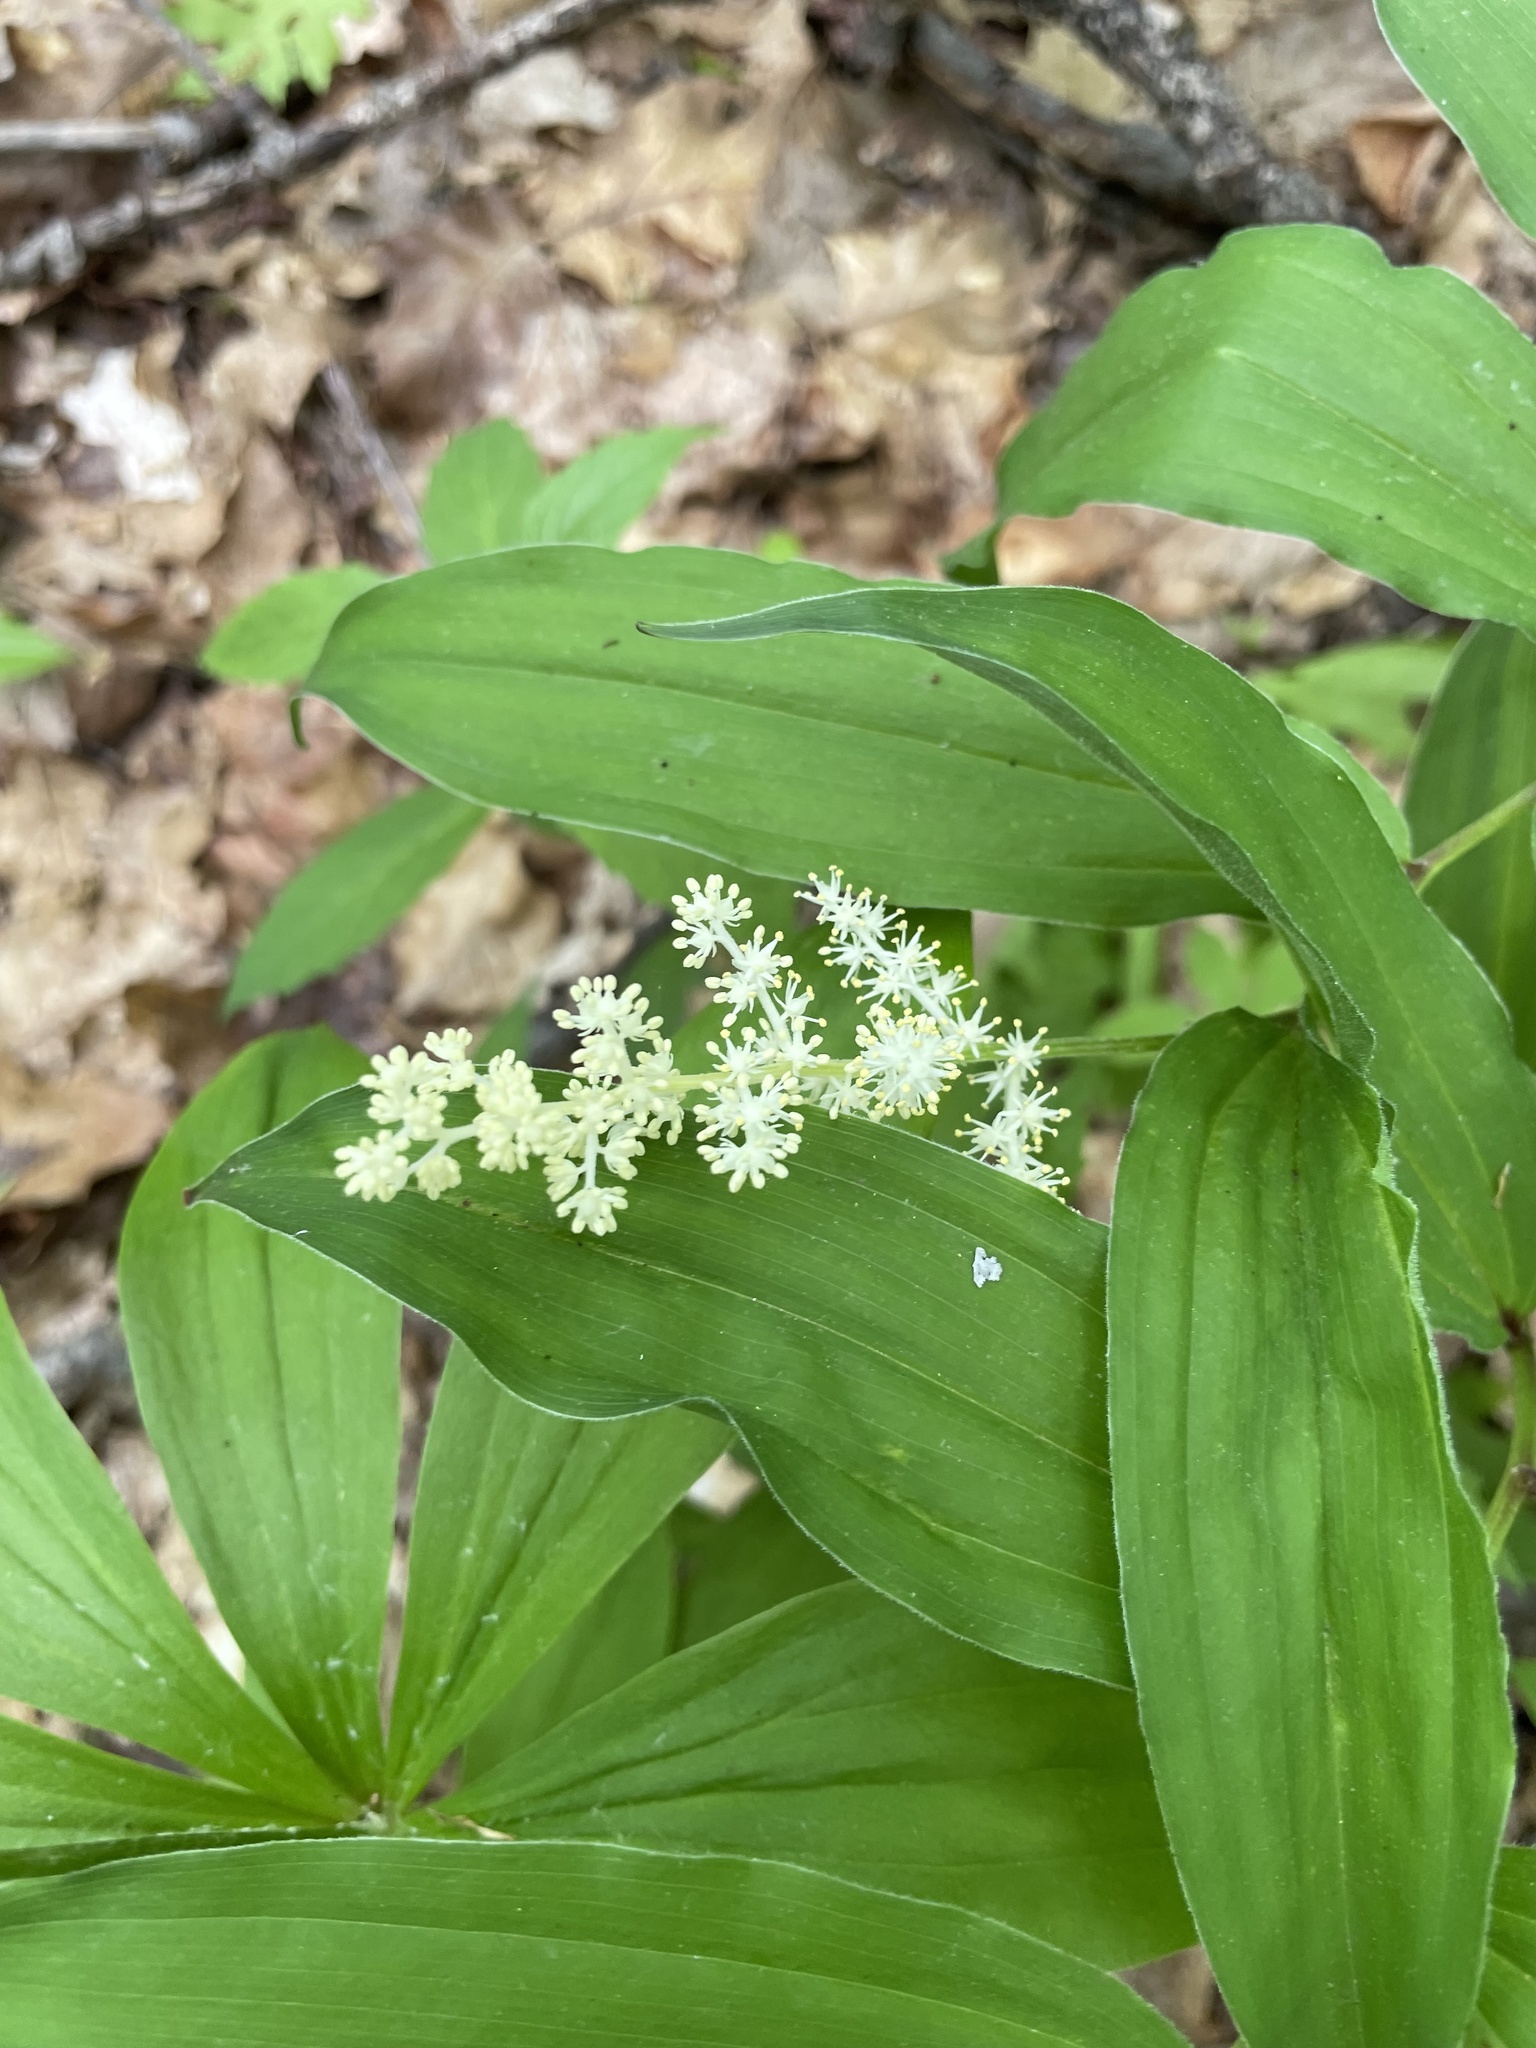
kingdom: Plantae
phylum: Tracheophyta
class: Liliopsida
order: Asparagales
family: Asparagaceae
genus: Maianthemum
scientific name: Maianthemum racemosum
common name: False spikenard
